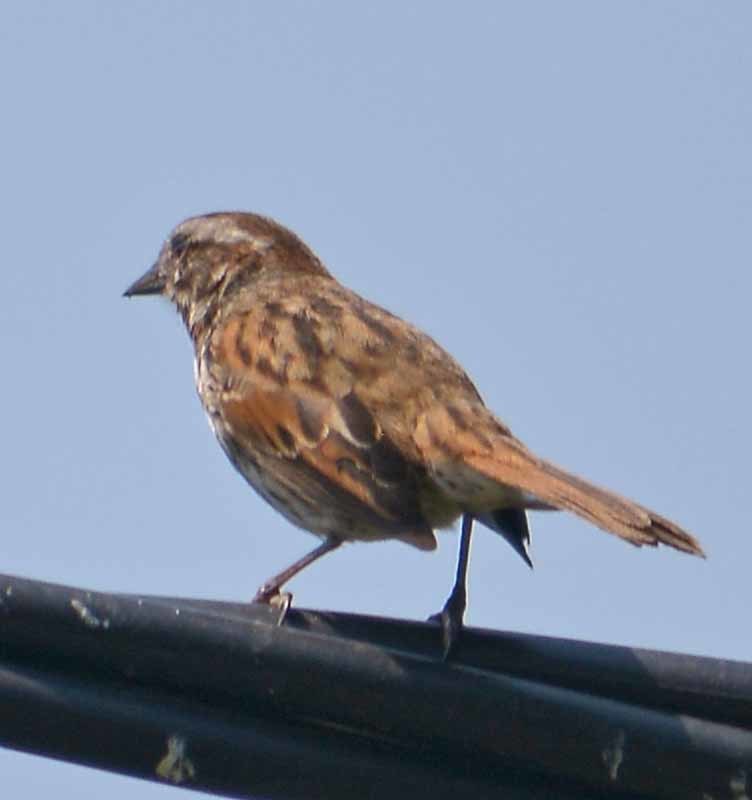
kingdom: Animalia
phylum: Chordata
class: Aves
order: Passeriformes
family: Passerellidae
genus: Melospiza
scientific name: Melospiza melodia
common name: Song sparrow
